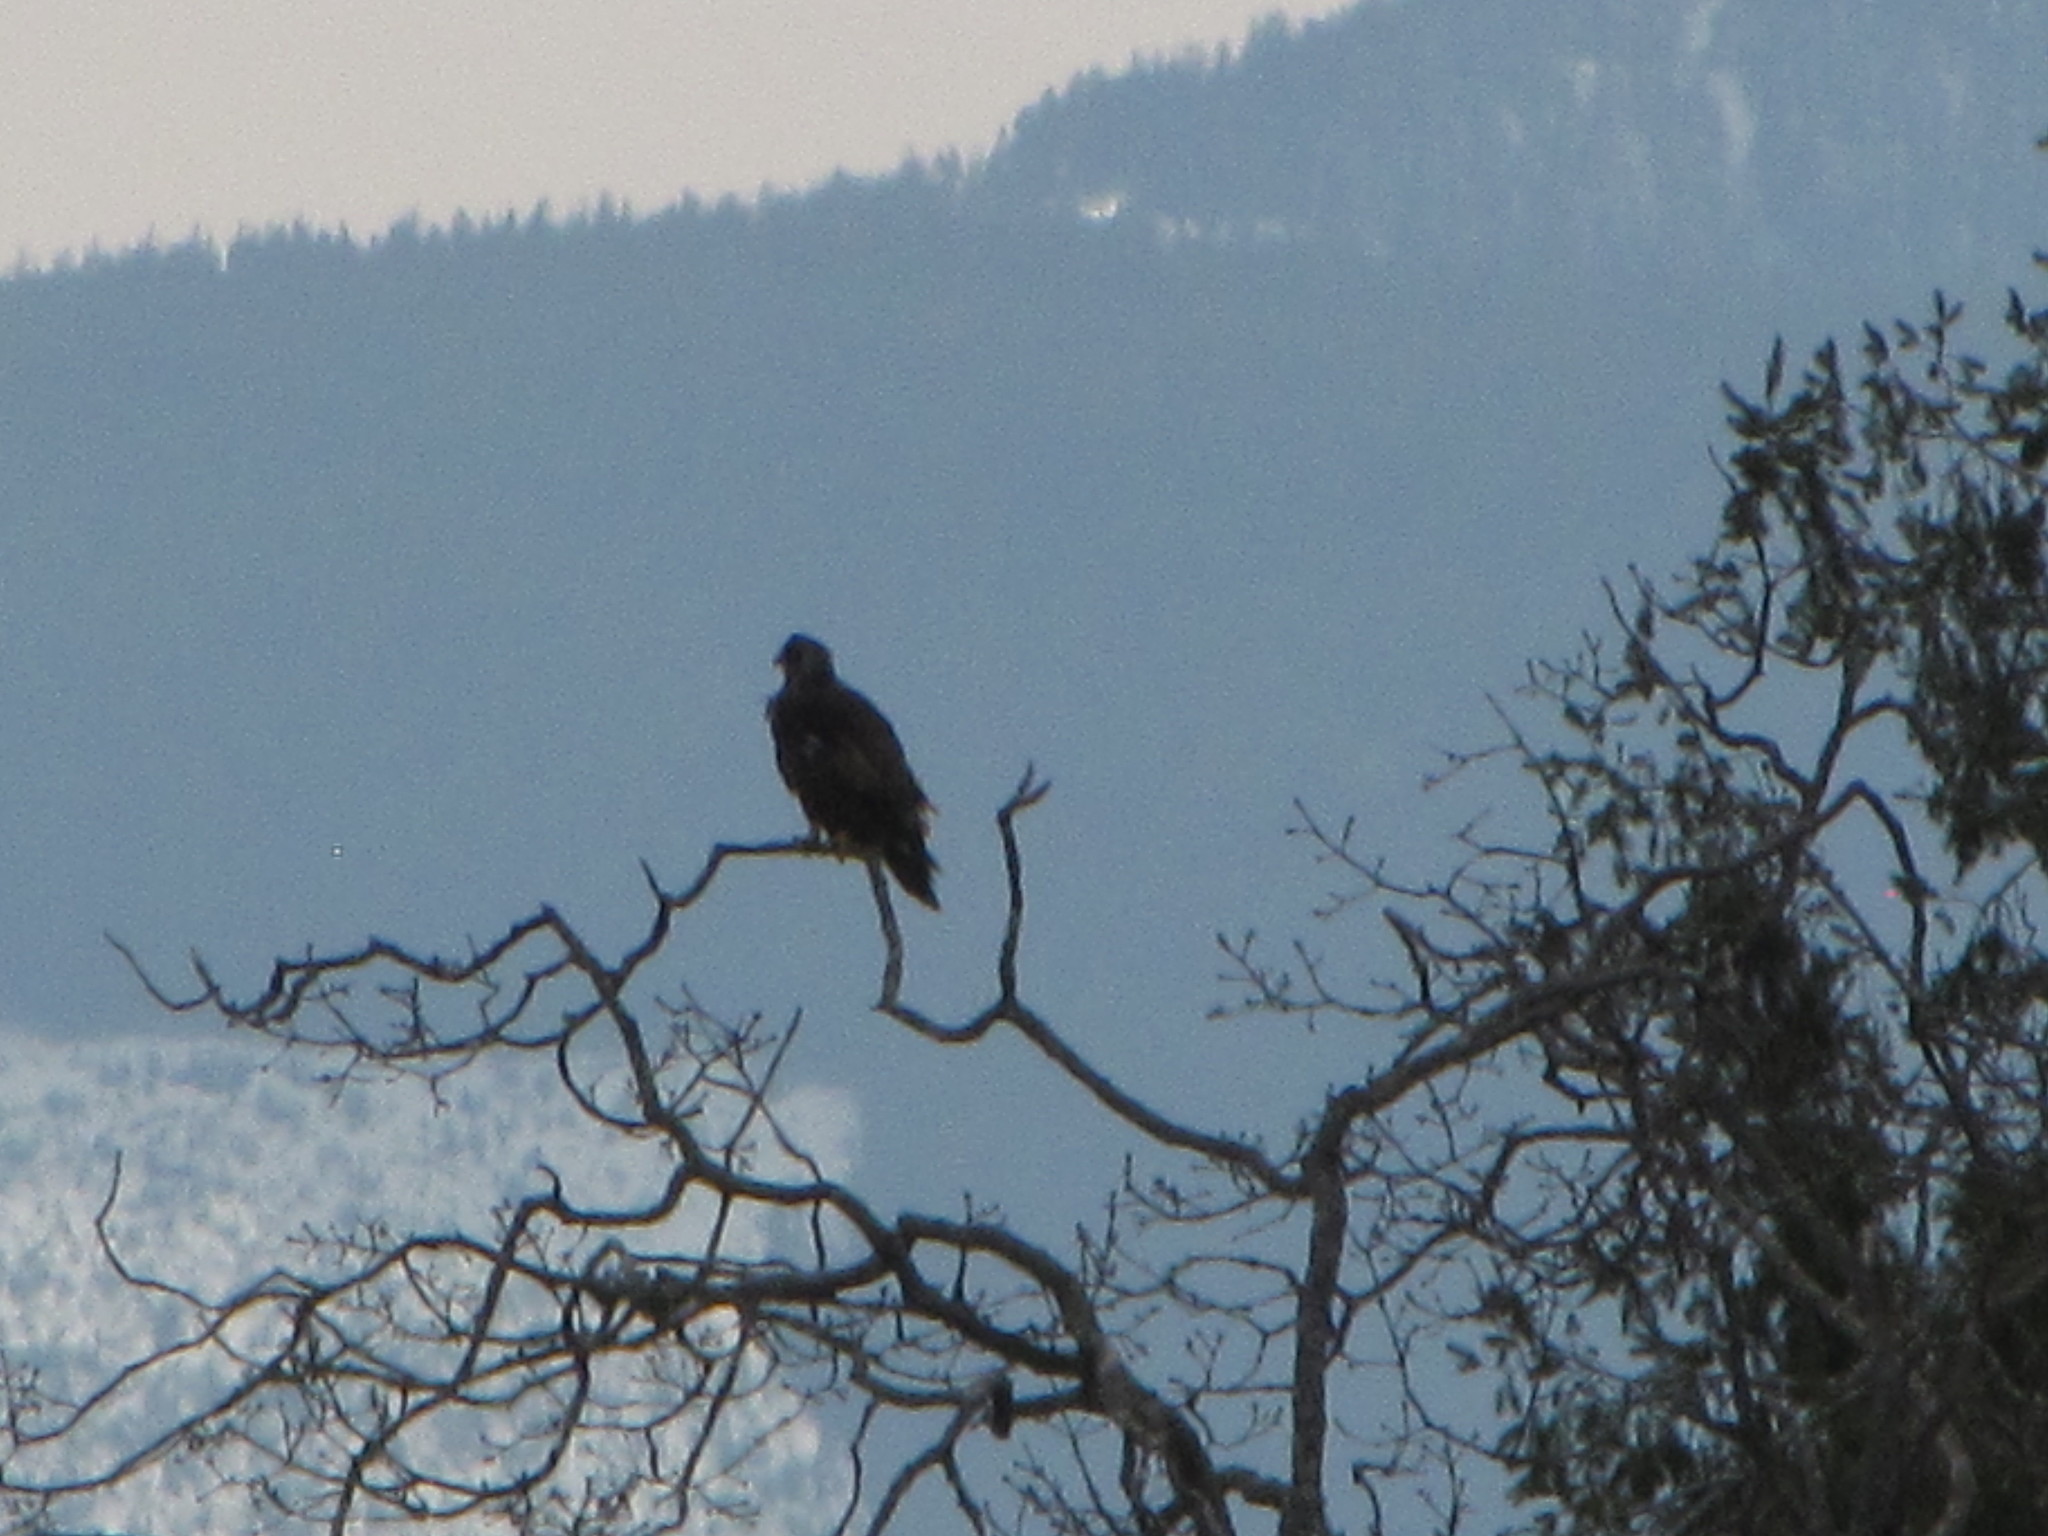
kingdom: Animalia
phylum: Chordata
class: Aves
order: Accipitriformes
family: Accipitridae
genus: Haliaeetus
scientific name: Haliaeetus leucocephalus
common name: Bald eagle
